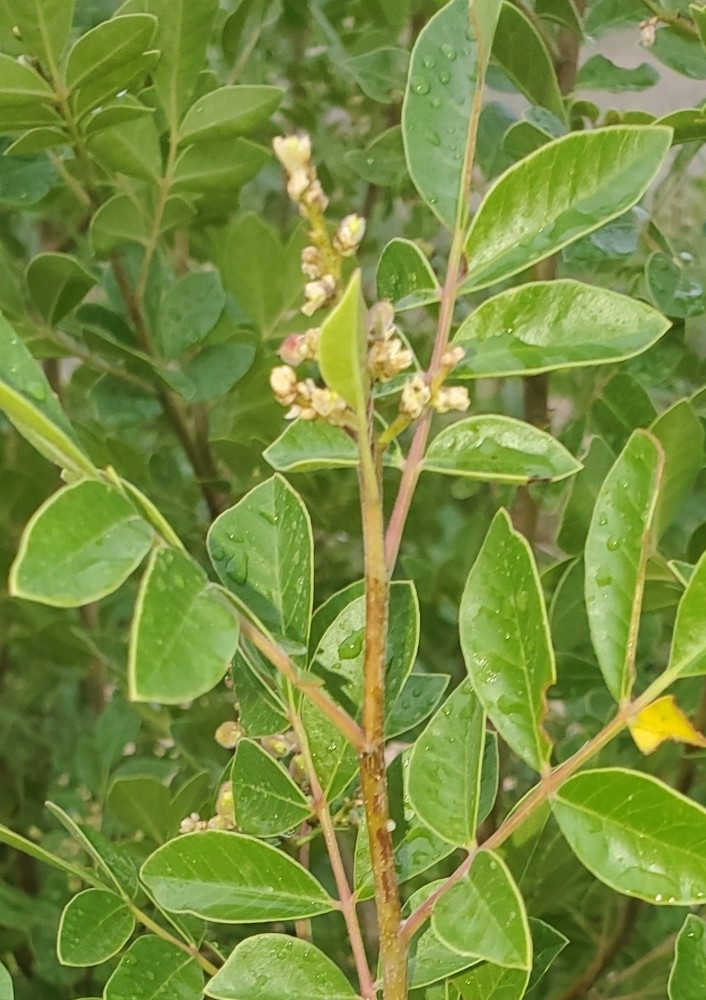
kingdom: Plantae
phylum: Tracheophyta
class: Magnoliopsida
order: Sapindales
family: Anacardiaceae
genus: Rhus
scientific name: Rhus virens
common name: Evergreen sumac
